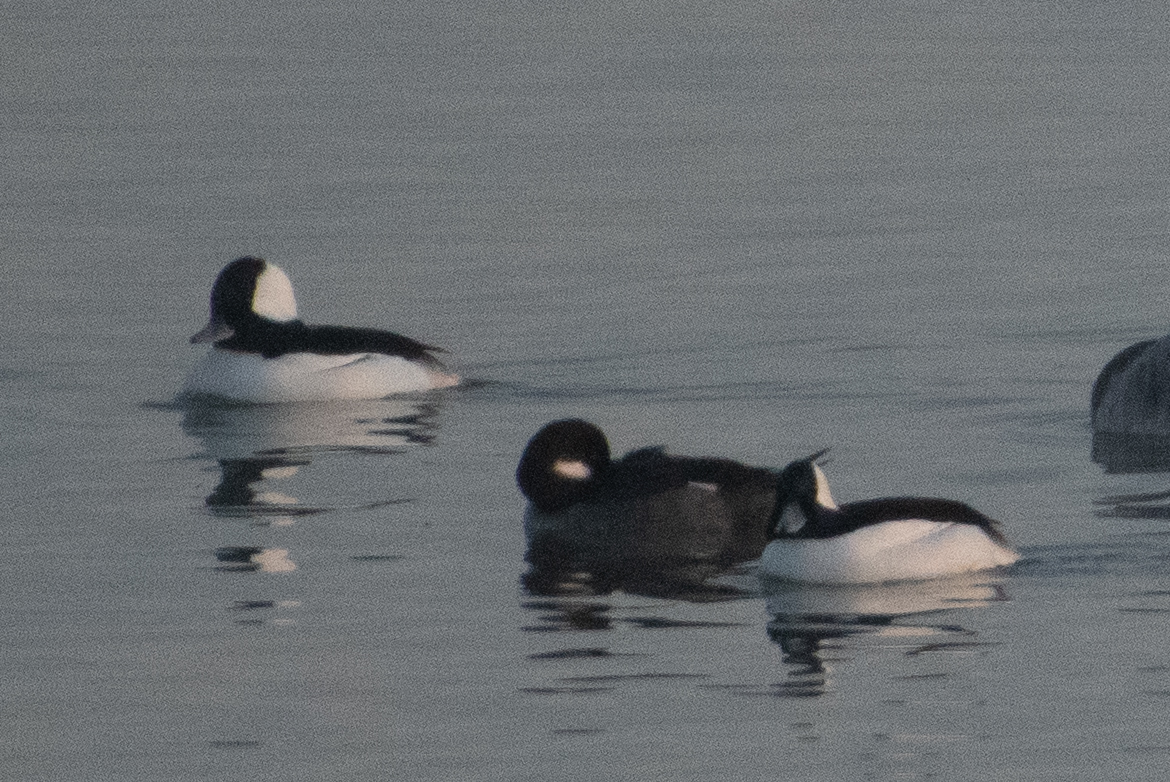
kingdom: Animalia
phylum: Chordata
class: Aves
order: Anseriformes
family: Anatidae
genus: Bucephala
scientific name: Bucephala albeola
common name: Bufflehead
